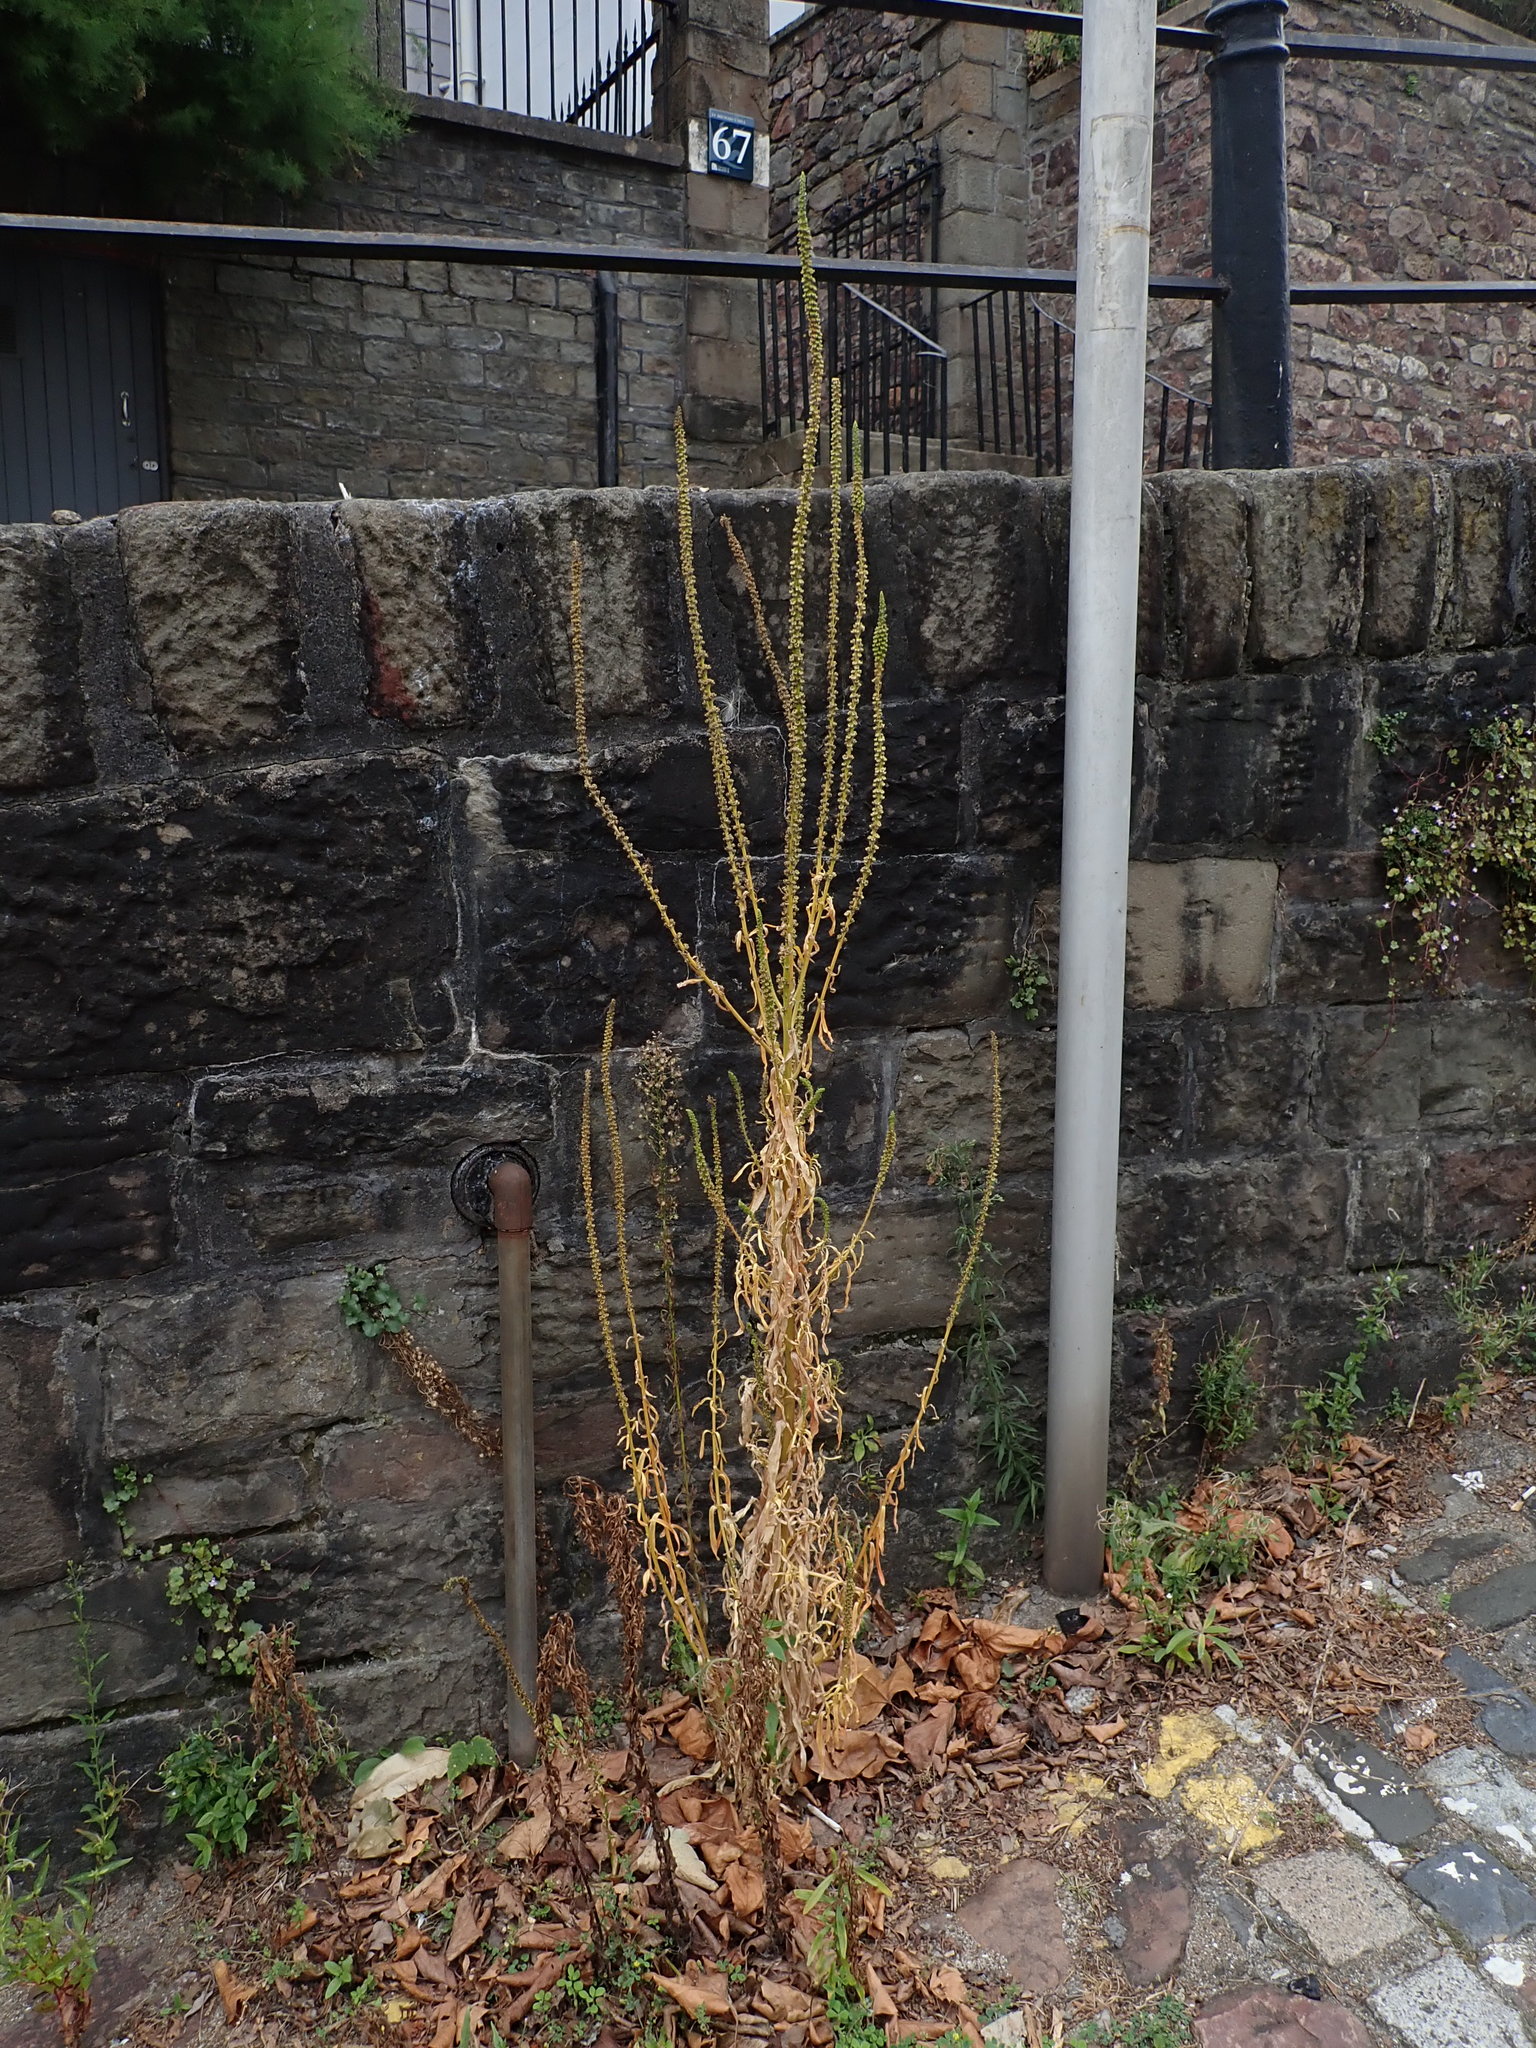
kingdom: Plantae
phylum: Tracheophyta
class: Magnoliopsida
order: Brassicales
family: Resedaceae
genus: Reseda
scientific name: Reseda luteola
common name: Weld
